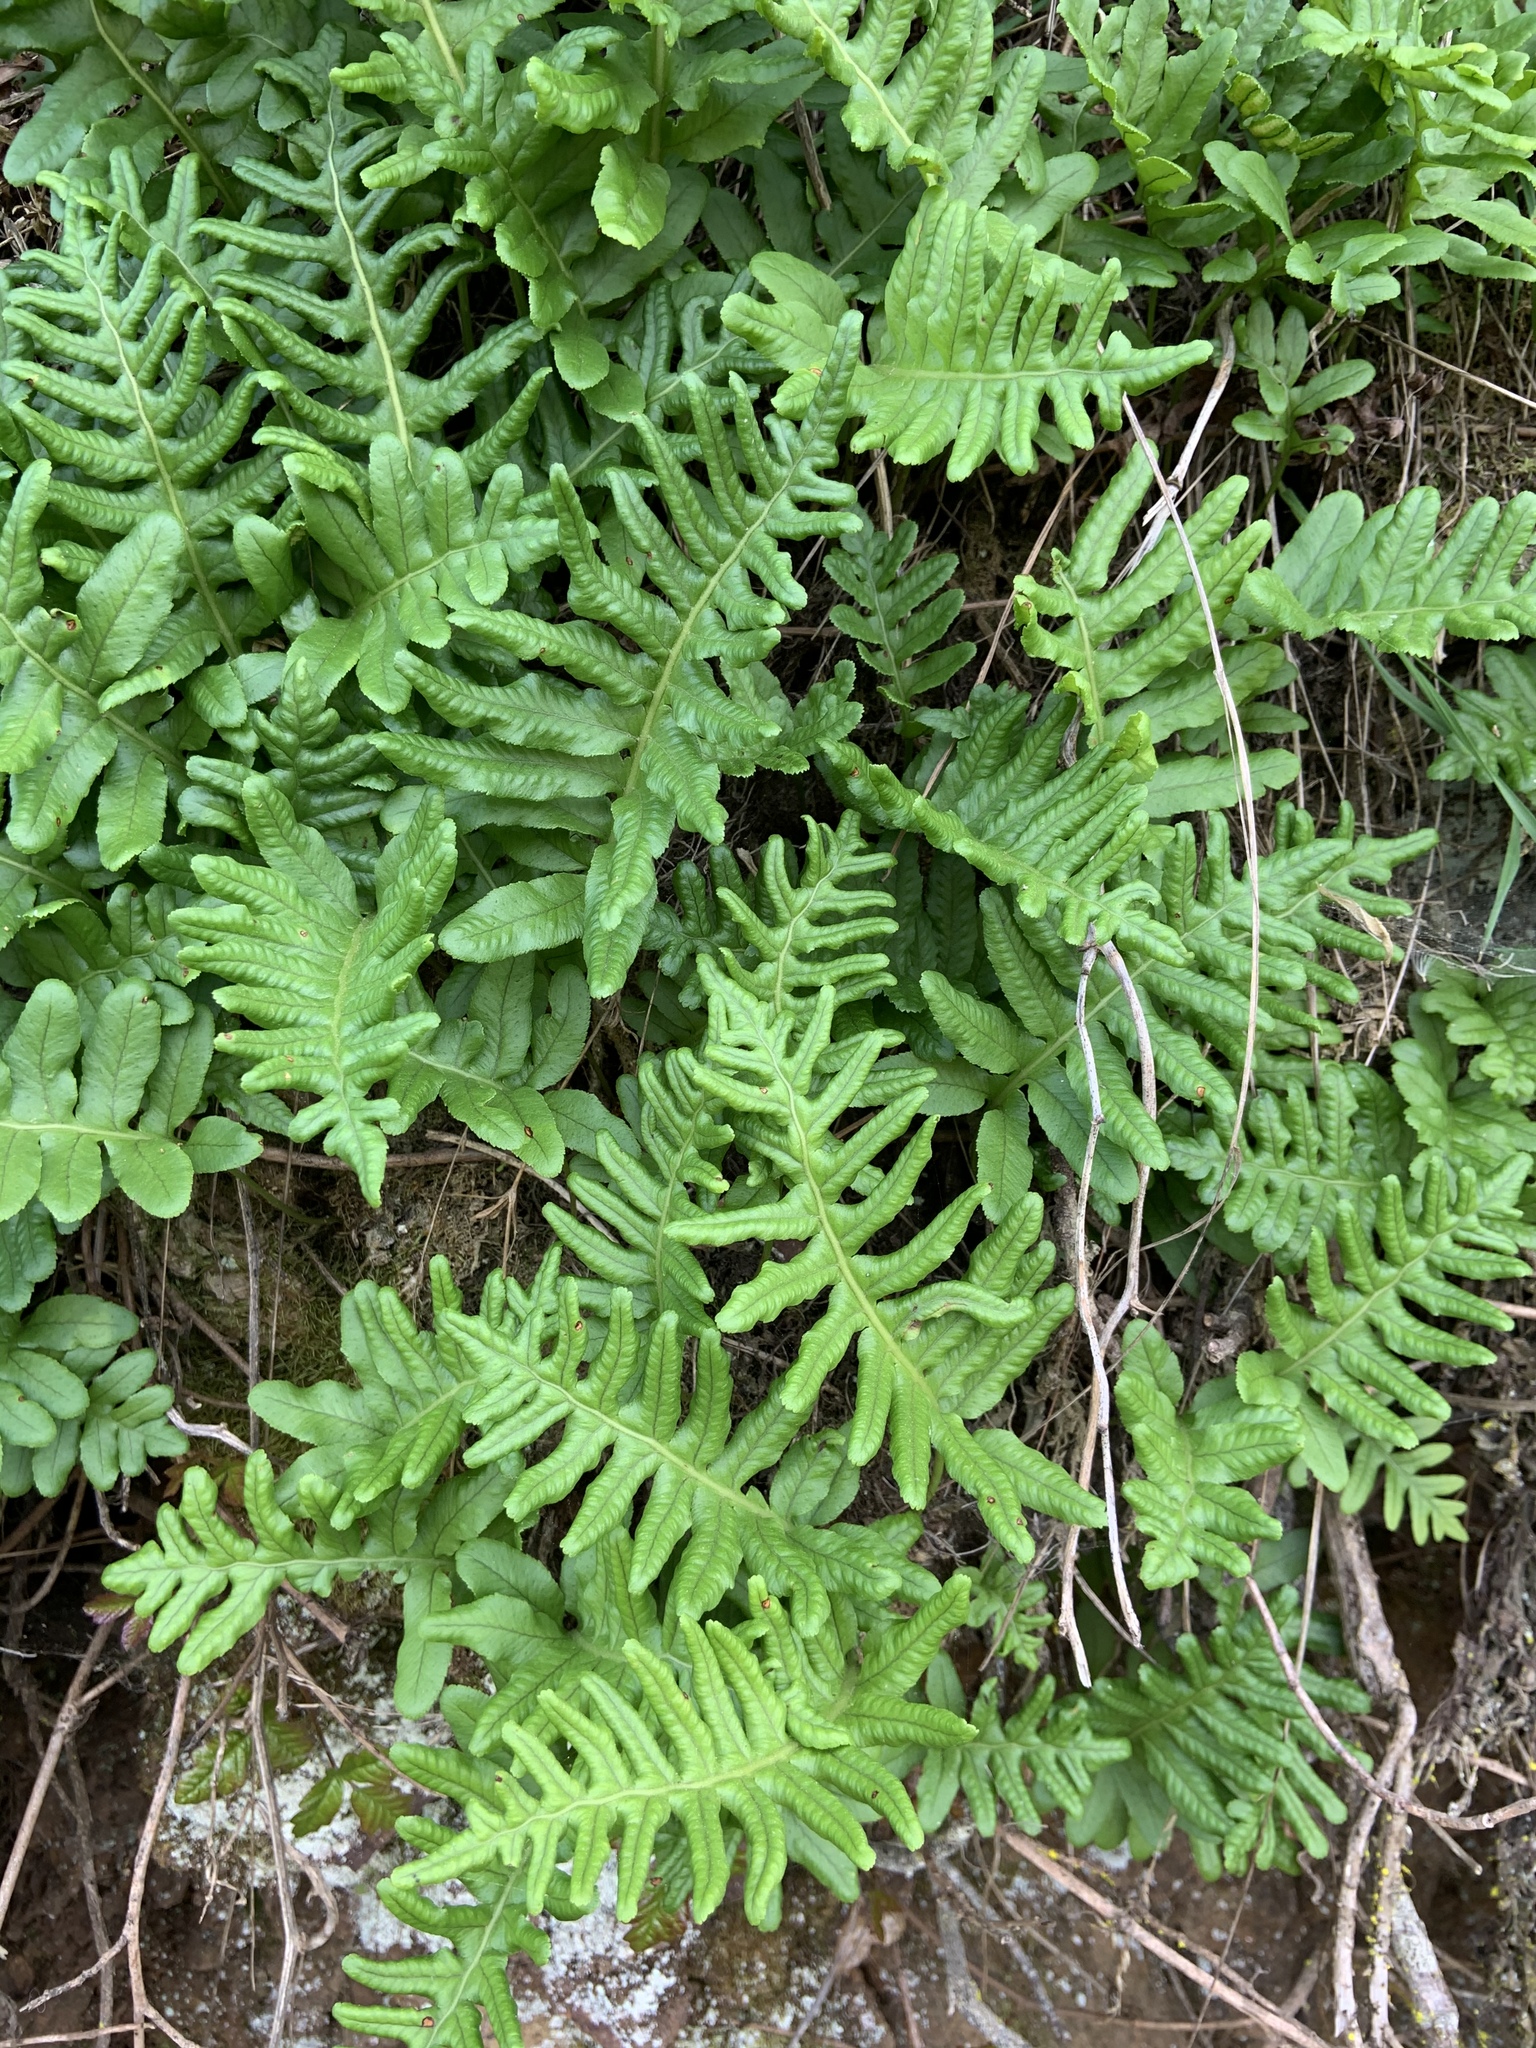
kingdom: Plantae
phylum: Tracheophyta
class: Polypodiopsida
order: Polypodiales
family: Polypodiaceae
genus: Polypodium
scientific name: Polypodium californicum
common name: California polypody
